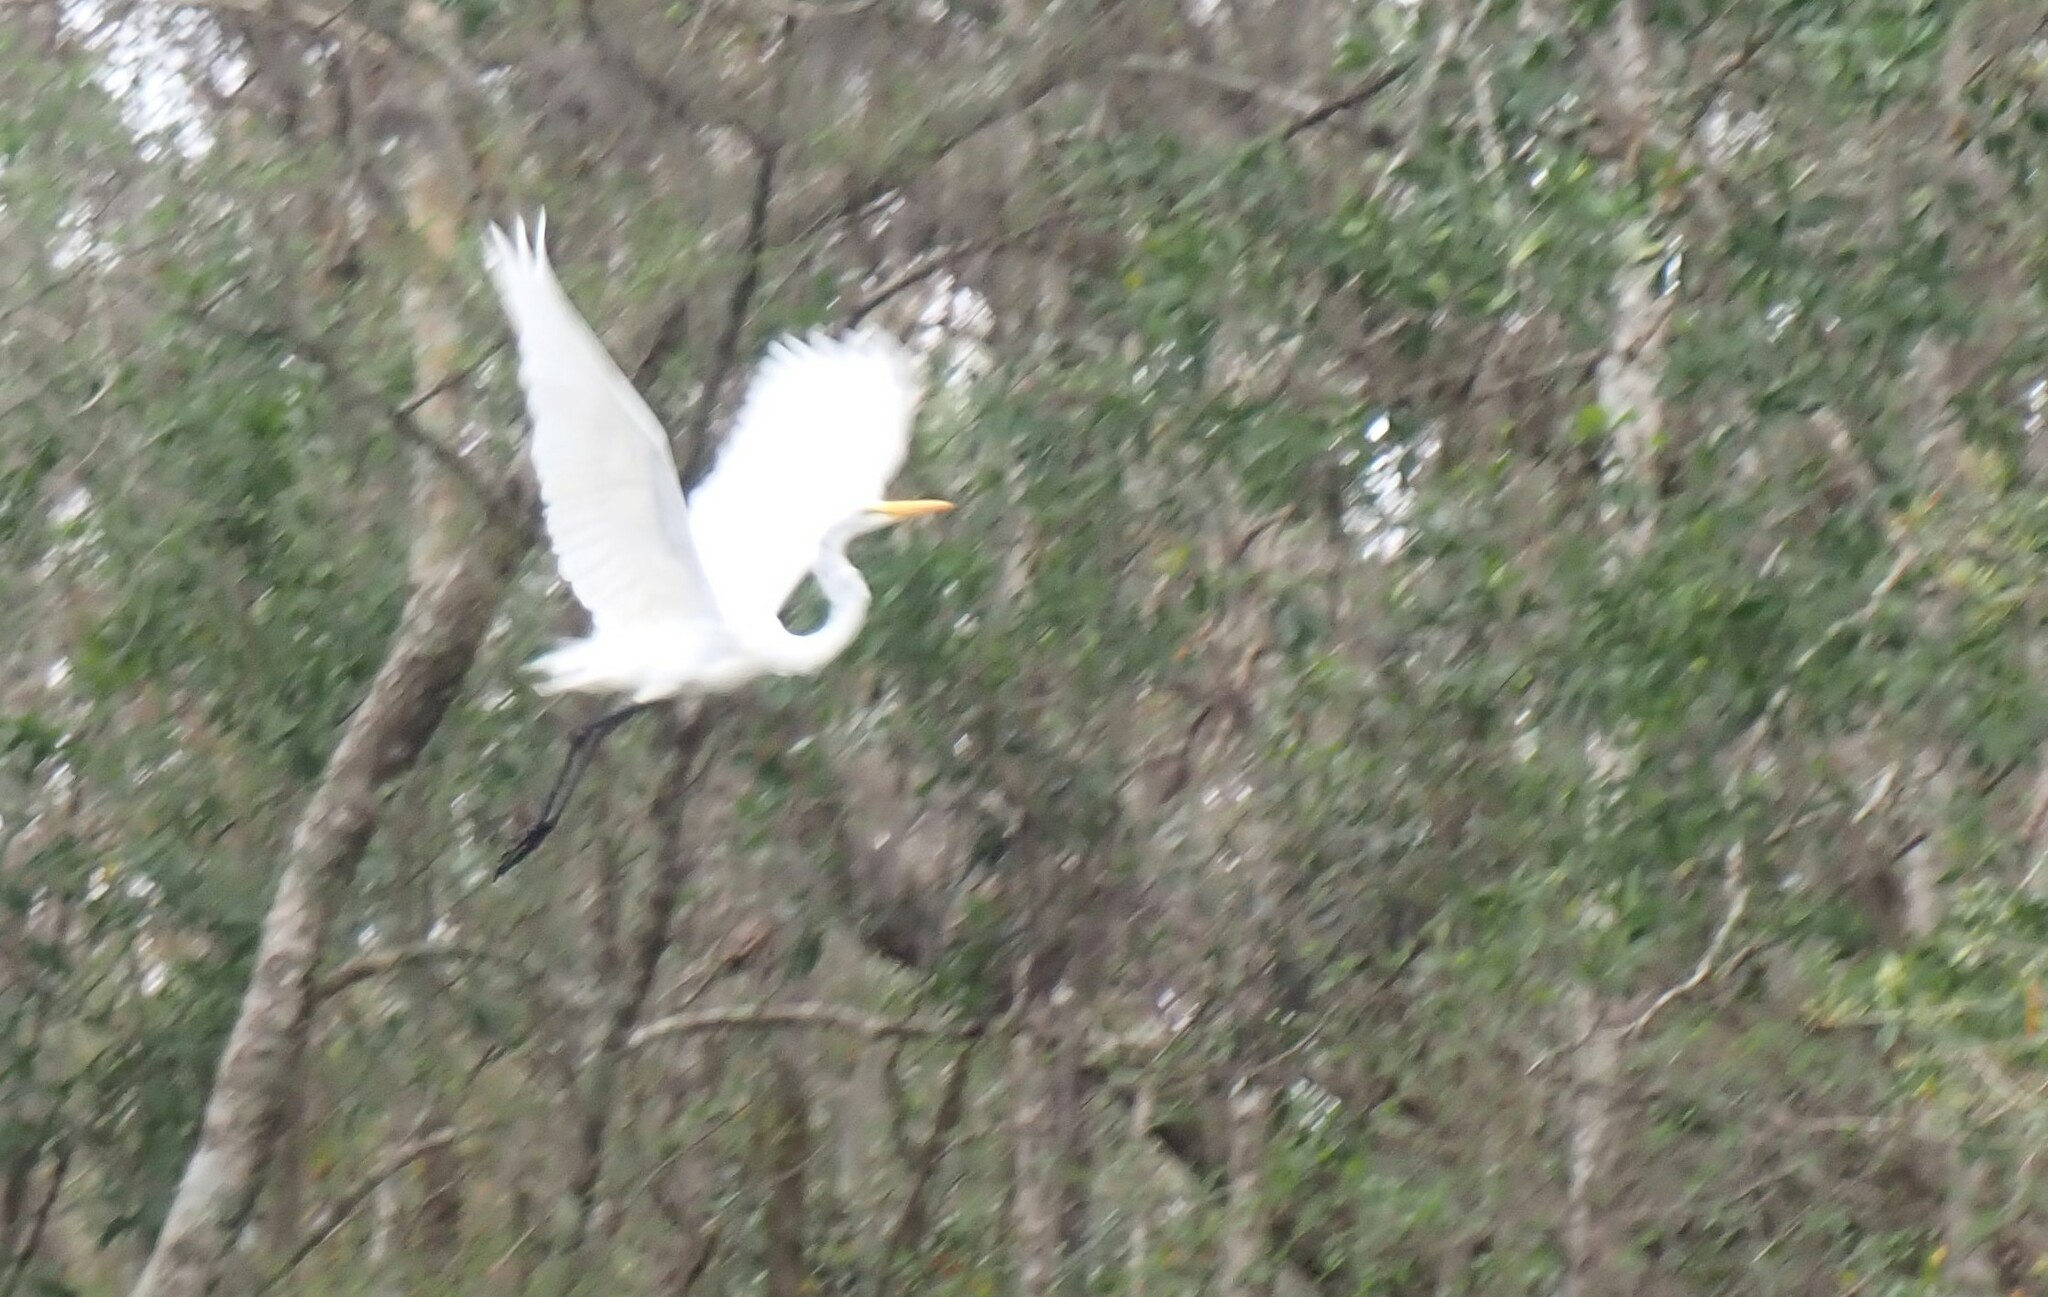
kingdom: Animalia
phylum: Chordata
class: Aves
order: Pelecaniformes
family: Ardeidae
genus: Ardea
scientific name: Ardea alba
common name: Great egret
